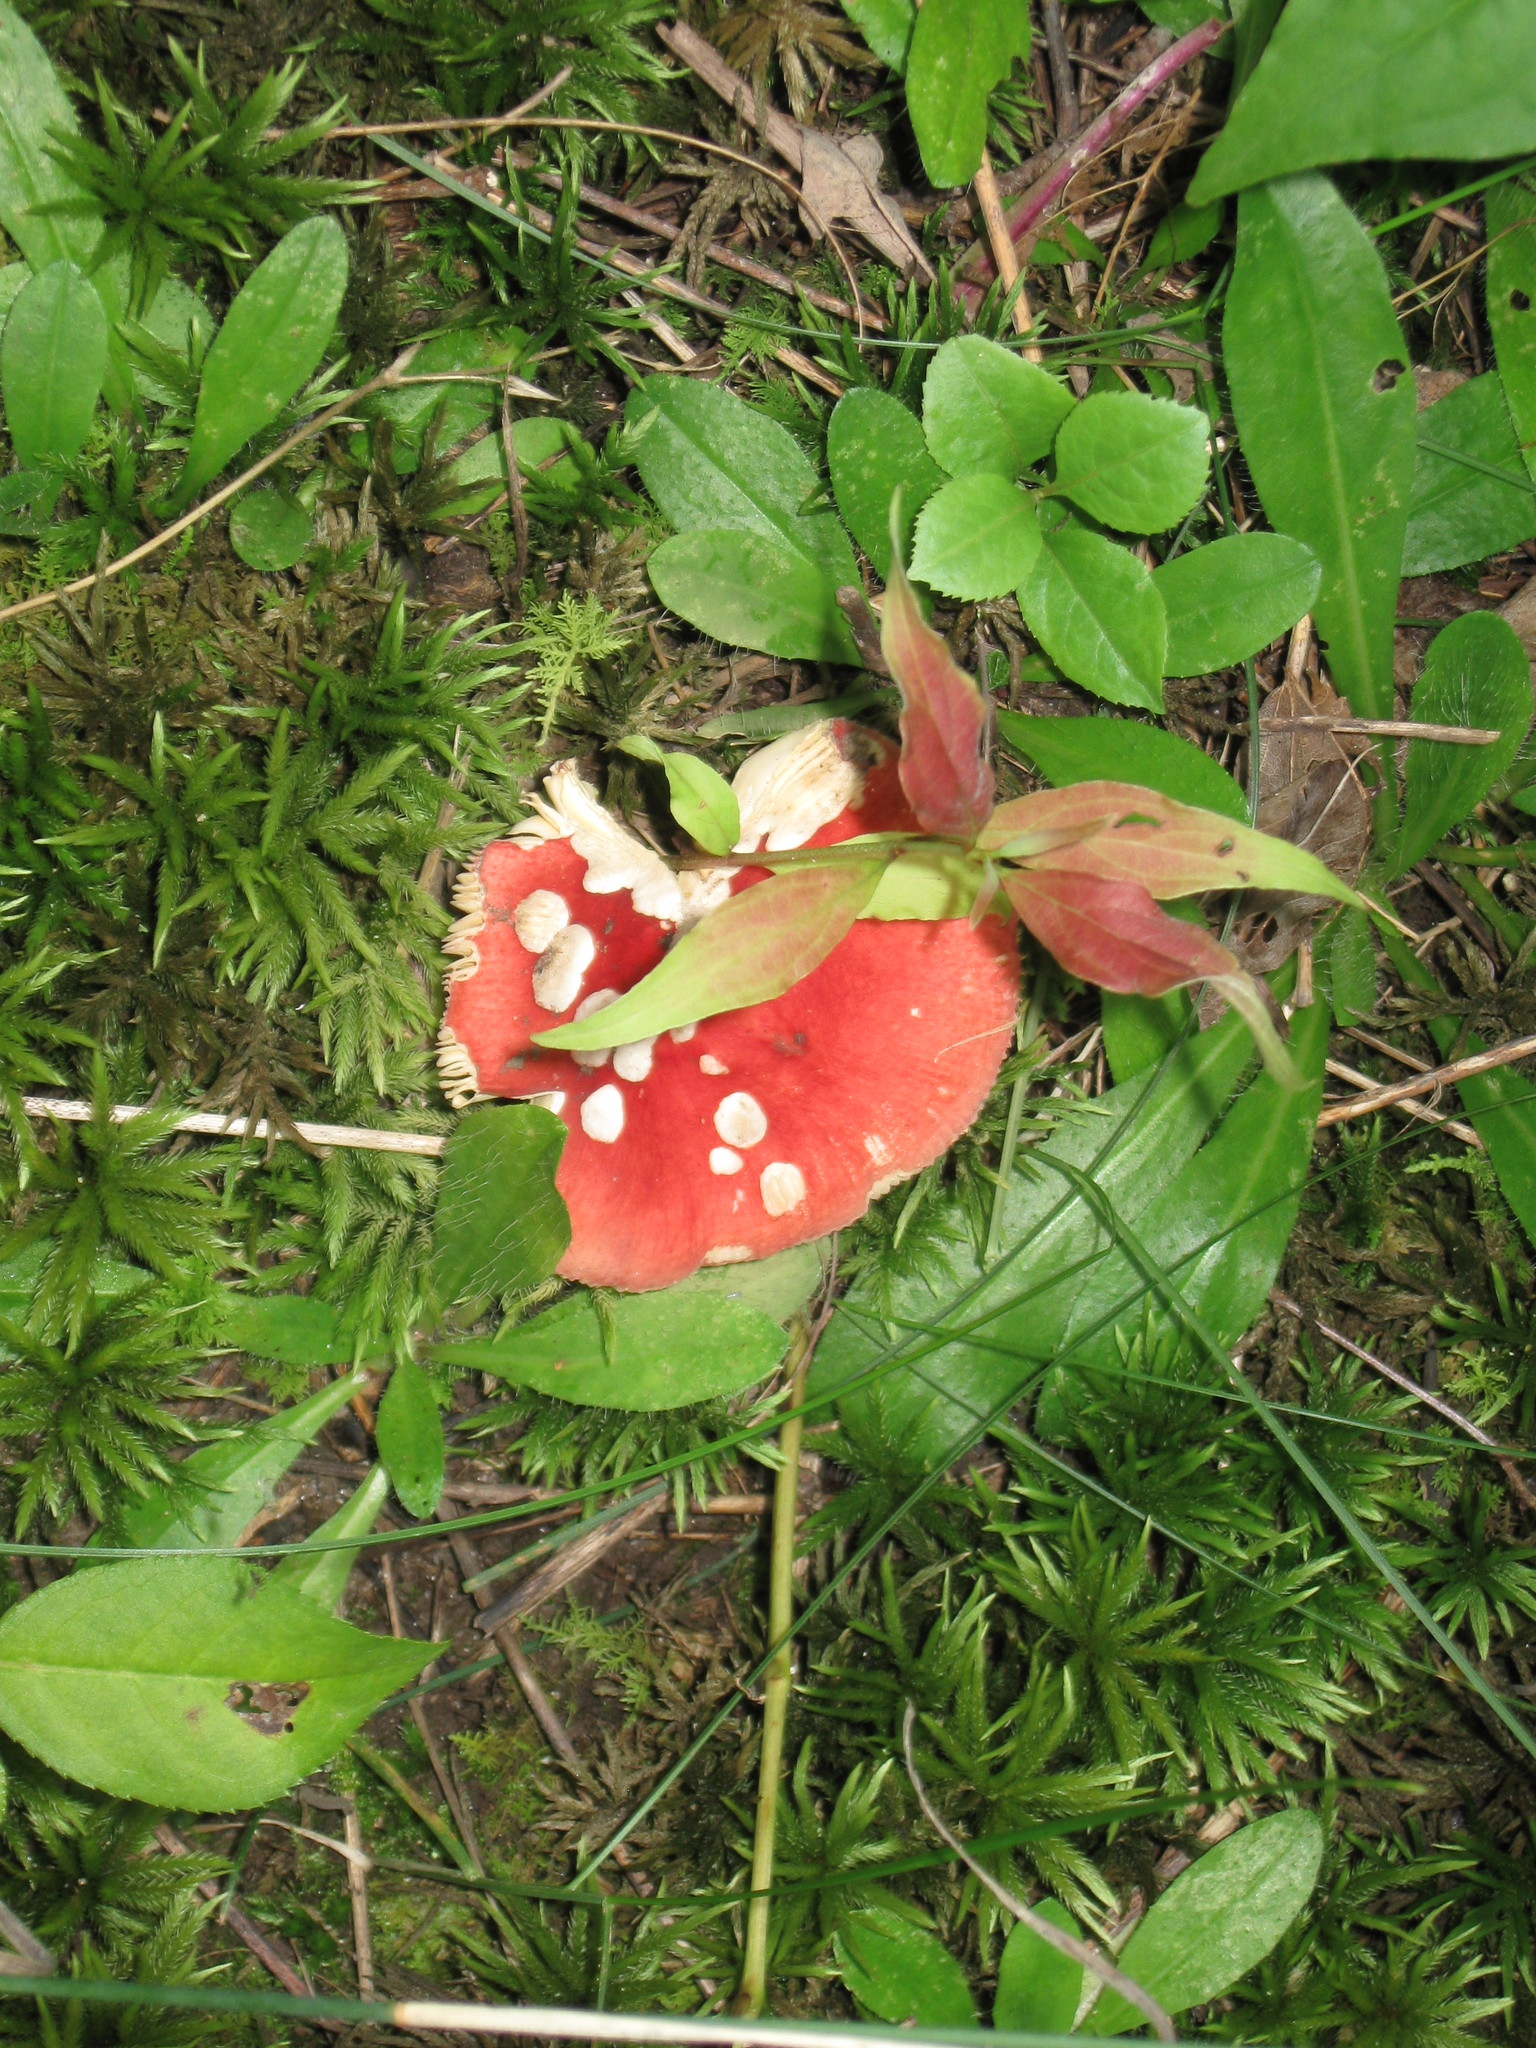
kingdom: Fungi
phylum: Basidiomycota
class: Agaricomycetes
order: Russulales
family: Russulaceae
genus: Russula
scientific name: Russula
